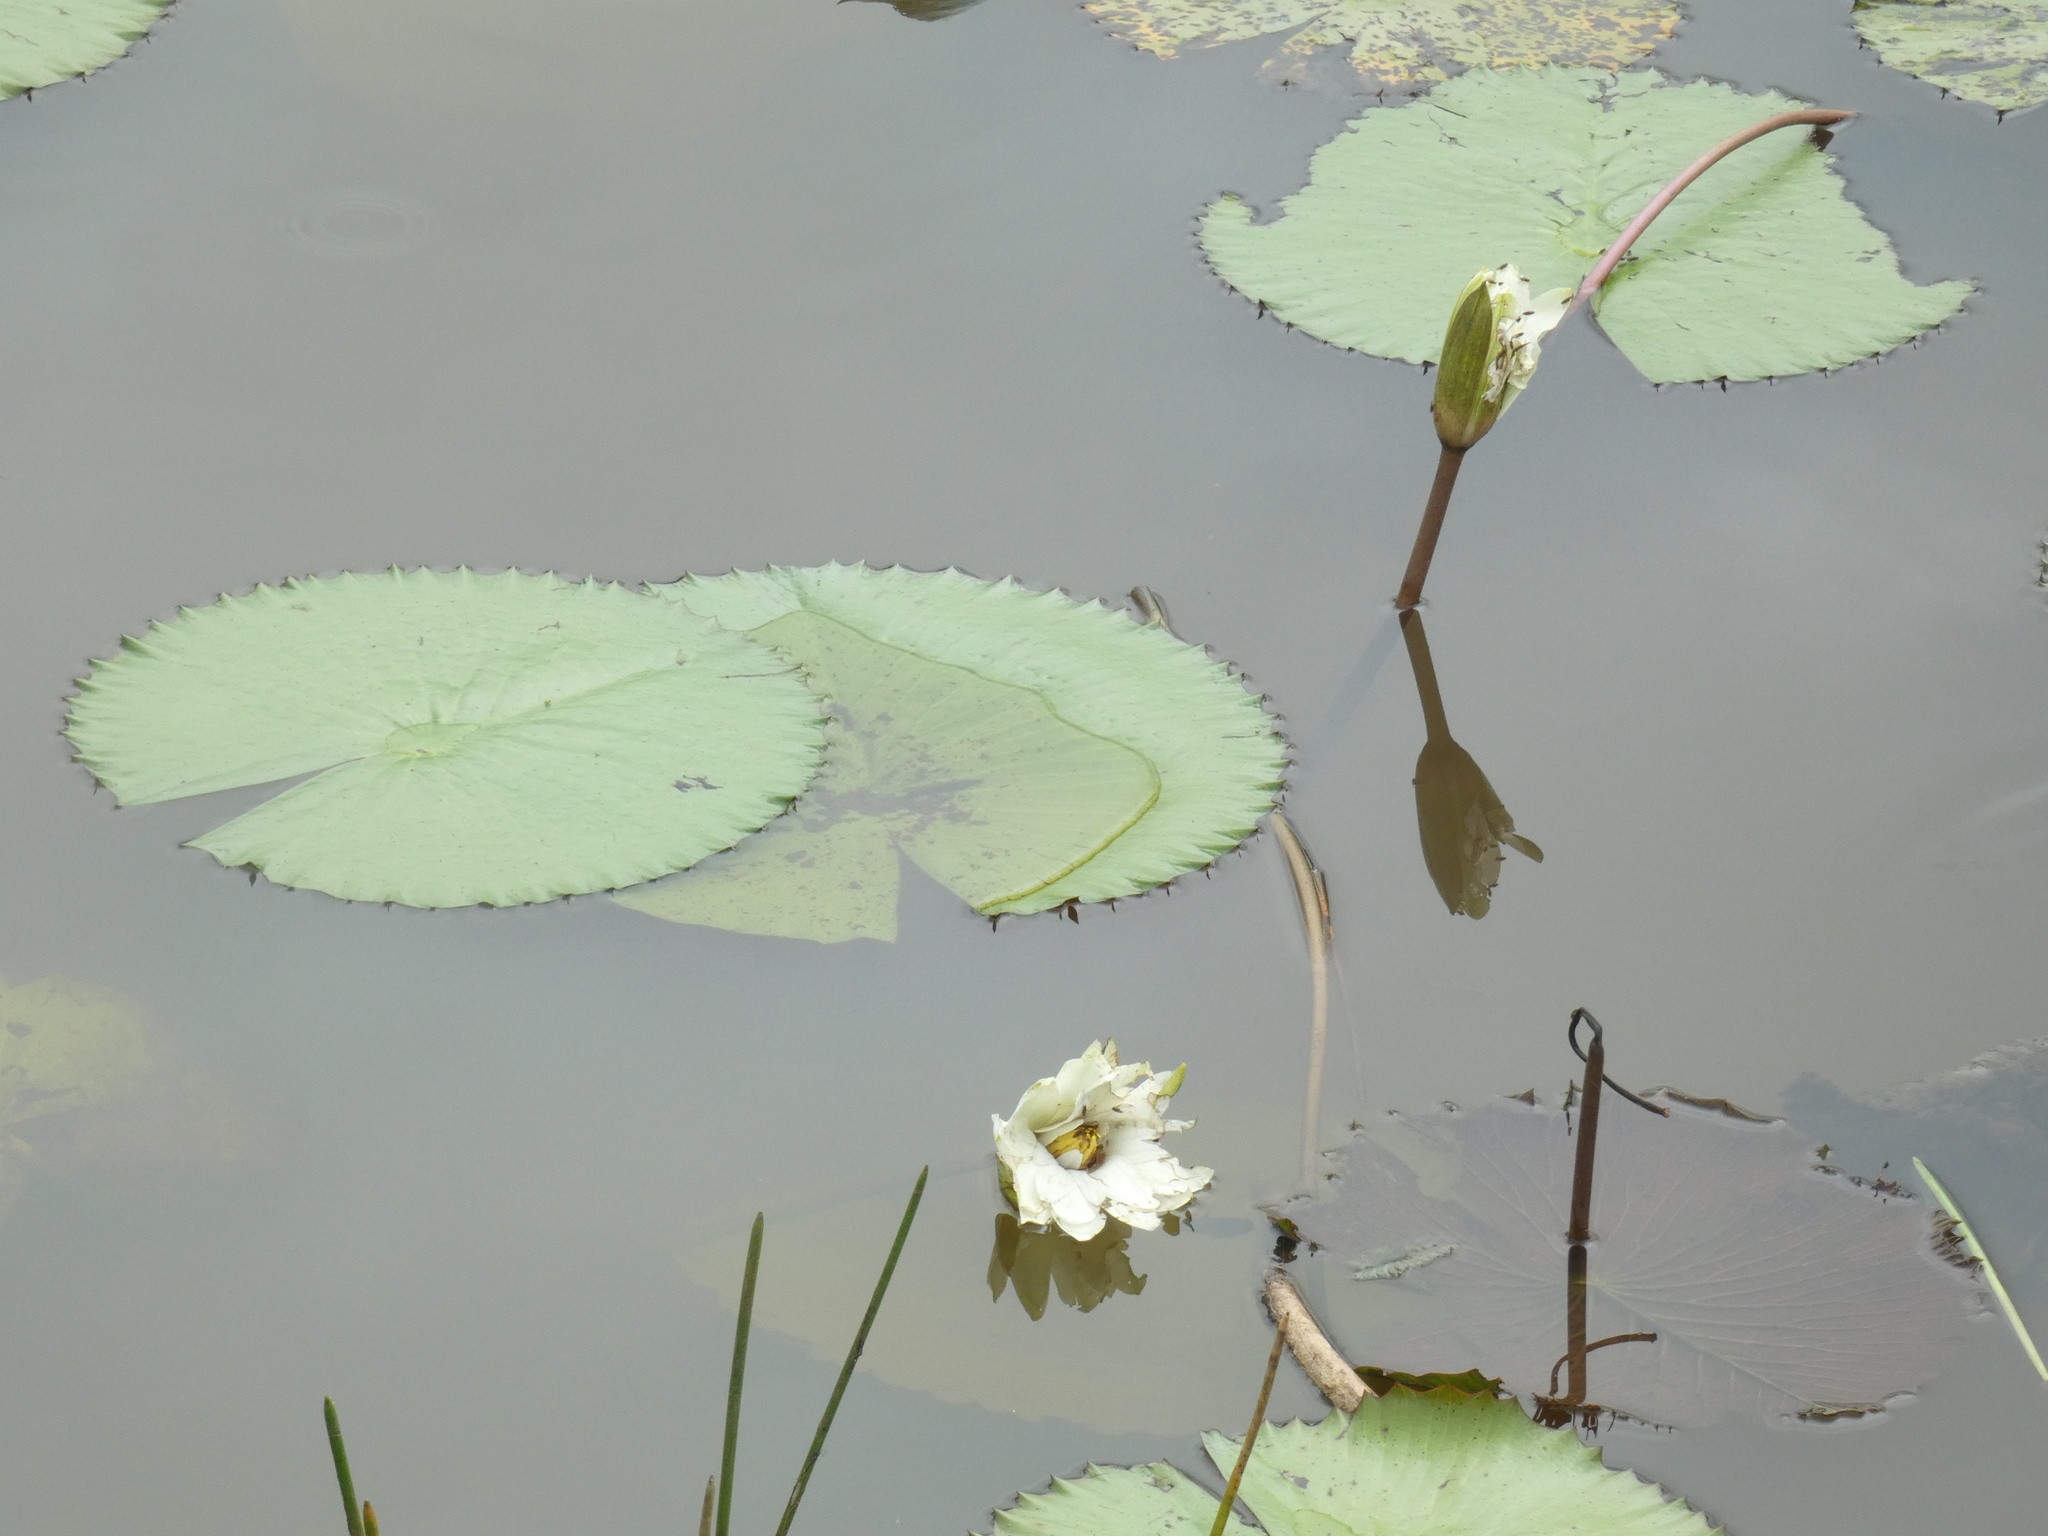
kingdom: Plantae
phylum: Tracheophyta
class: Magnoliopsida
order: Nymphaeales
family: Nymphaeaceae
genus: Nymphaea
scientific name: Nymphaea lotus
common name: White egyptian lotus
